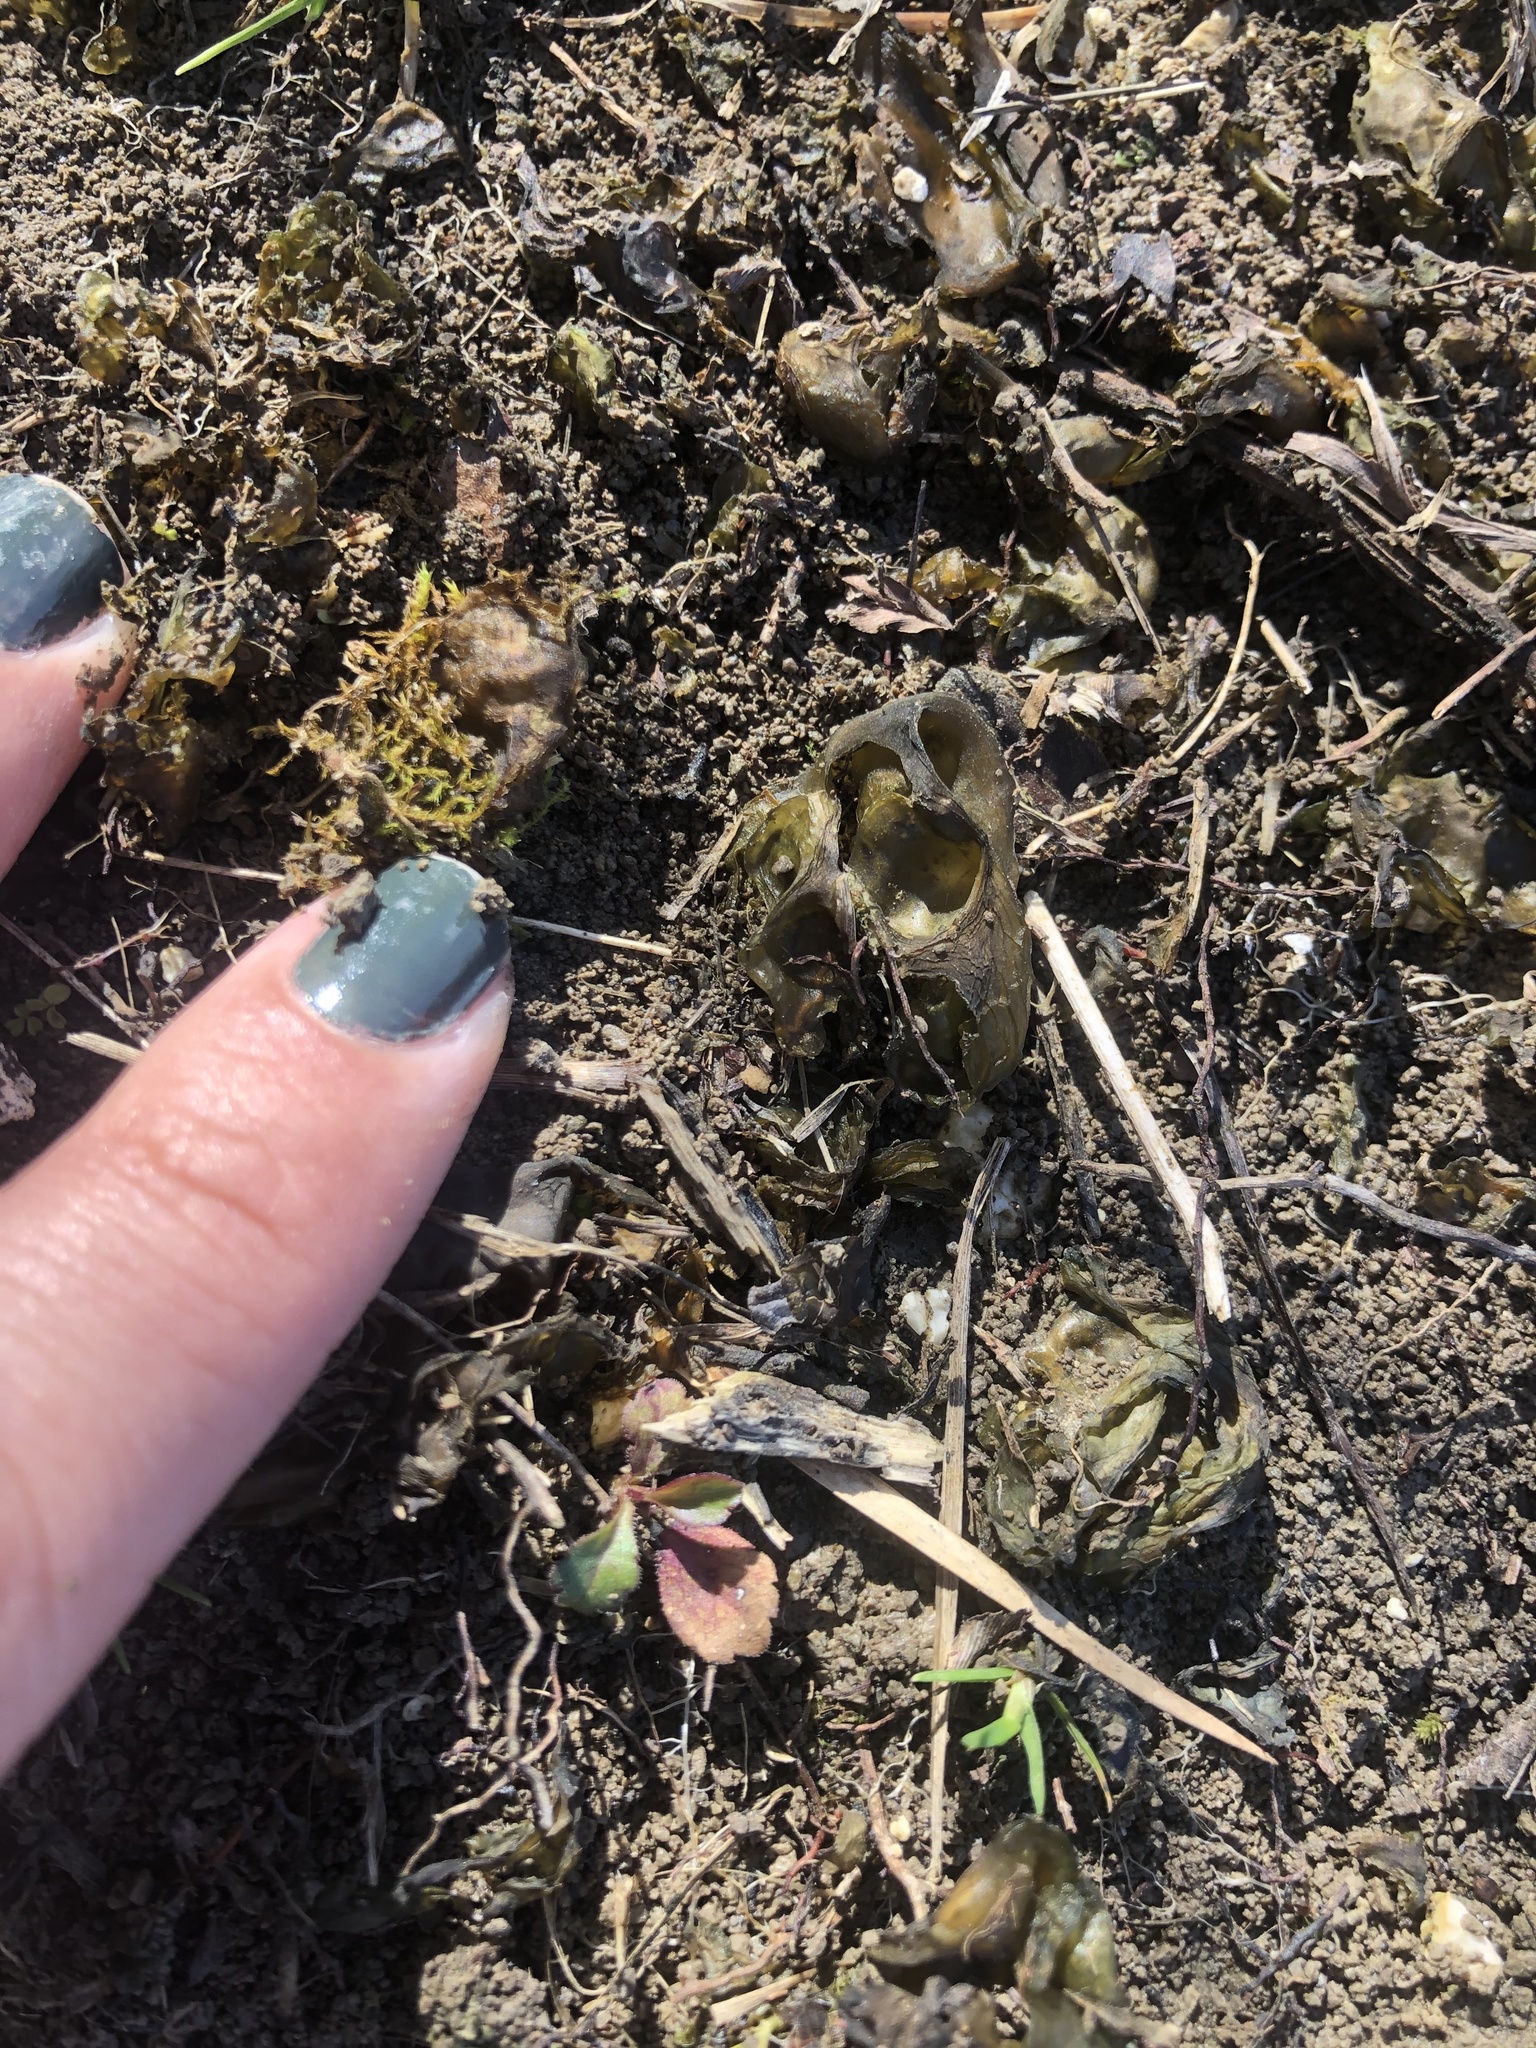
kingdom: Bacteria
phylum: Cyanobacteria
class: Cyanobacteriia
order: Cyanobacteriales
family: Nostocaceae
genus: Nostoc
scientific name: Nostoc commune
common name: Star jelly
